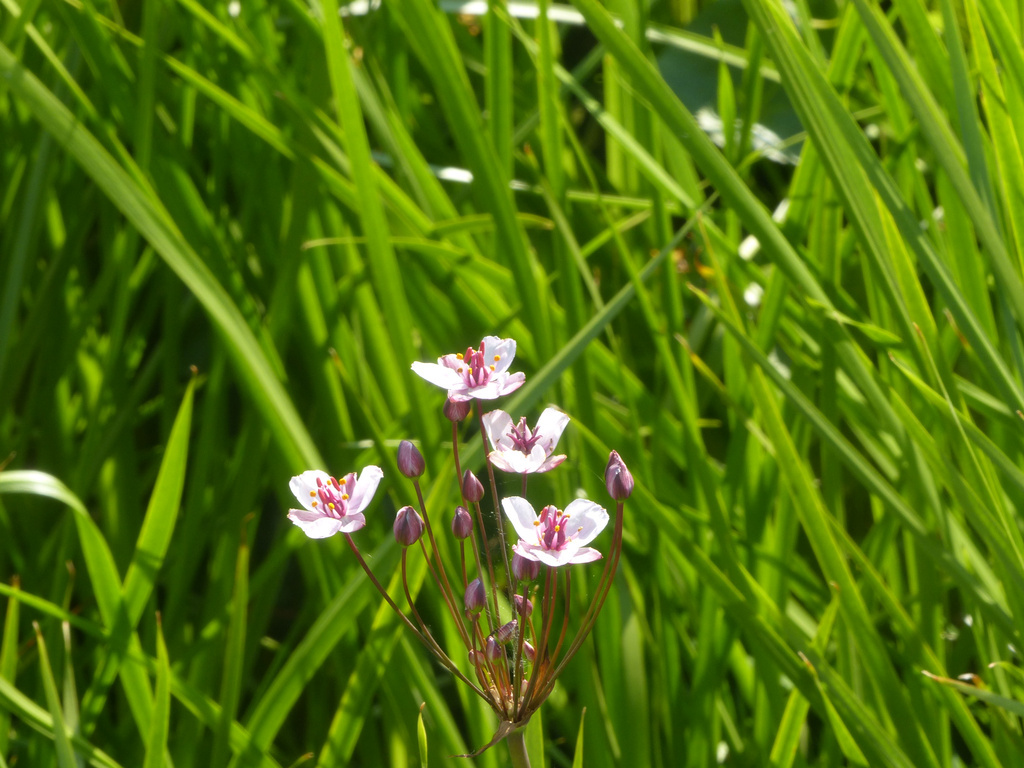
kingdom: Plantae
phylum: Tracheophyta
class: Liliopsida
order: Alismatales
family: Butomaceae
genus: Butomus
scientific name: Butomus umbellatus
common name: Flowering-rush
